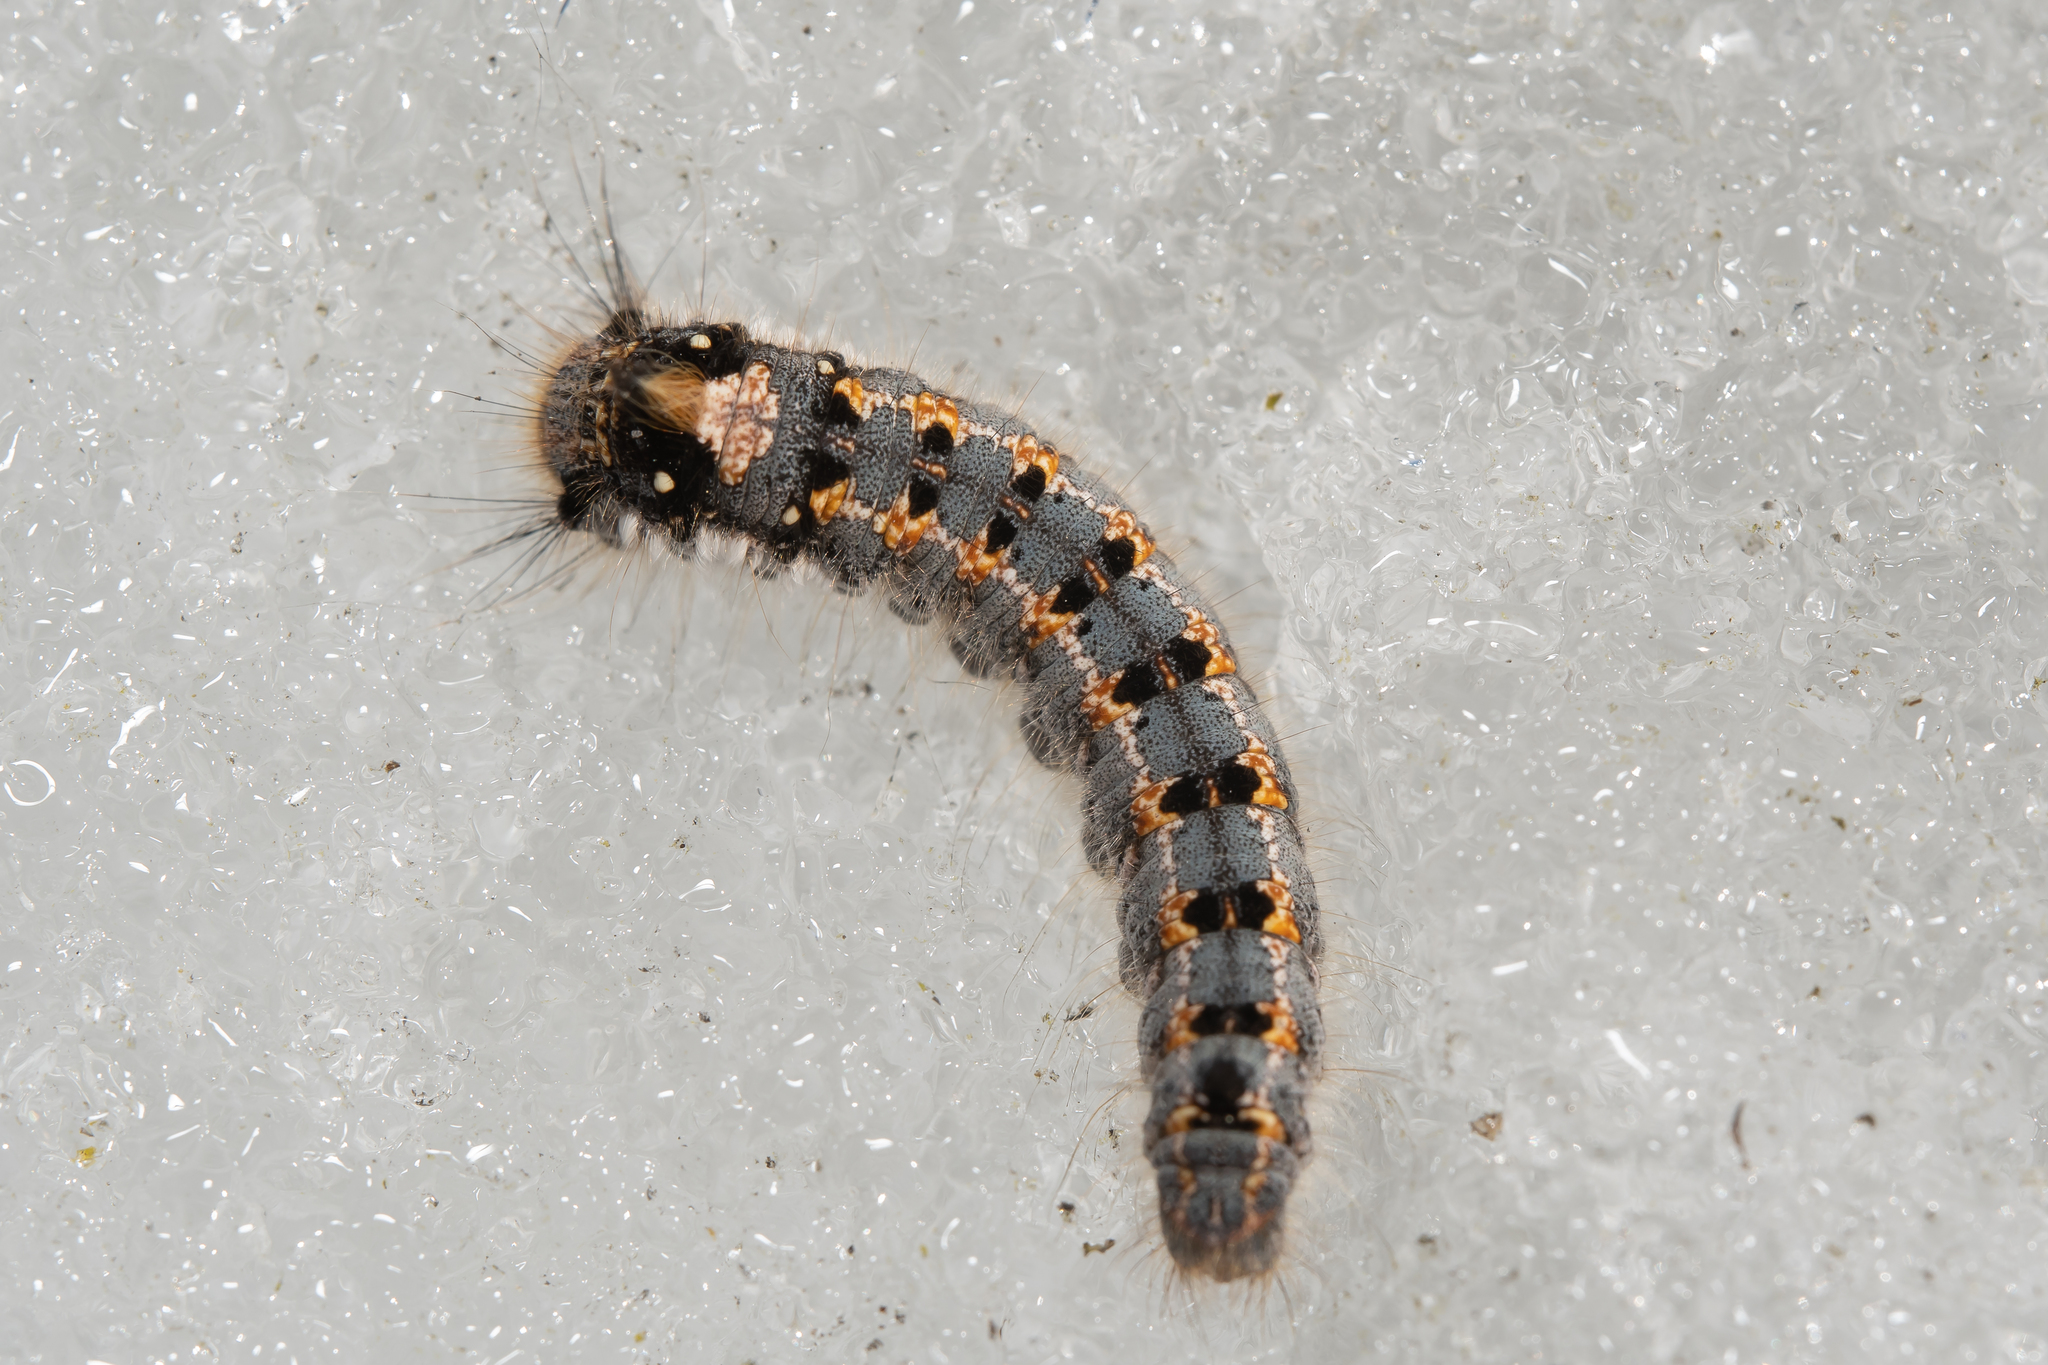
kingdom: Animalia
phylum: Arthropoda
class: Insecta
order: Lepidoptera
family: Lasiocampidae
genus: Euthrix
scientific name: Euthrix potatoria
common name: Drinker
